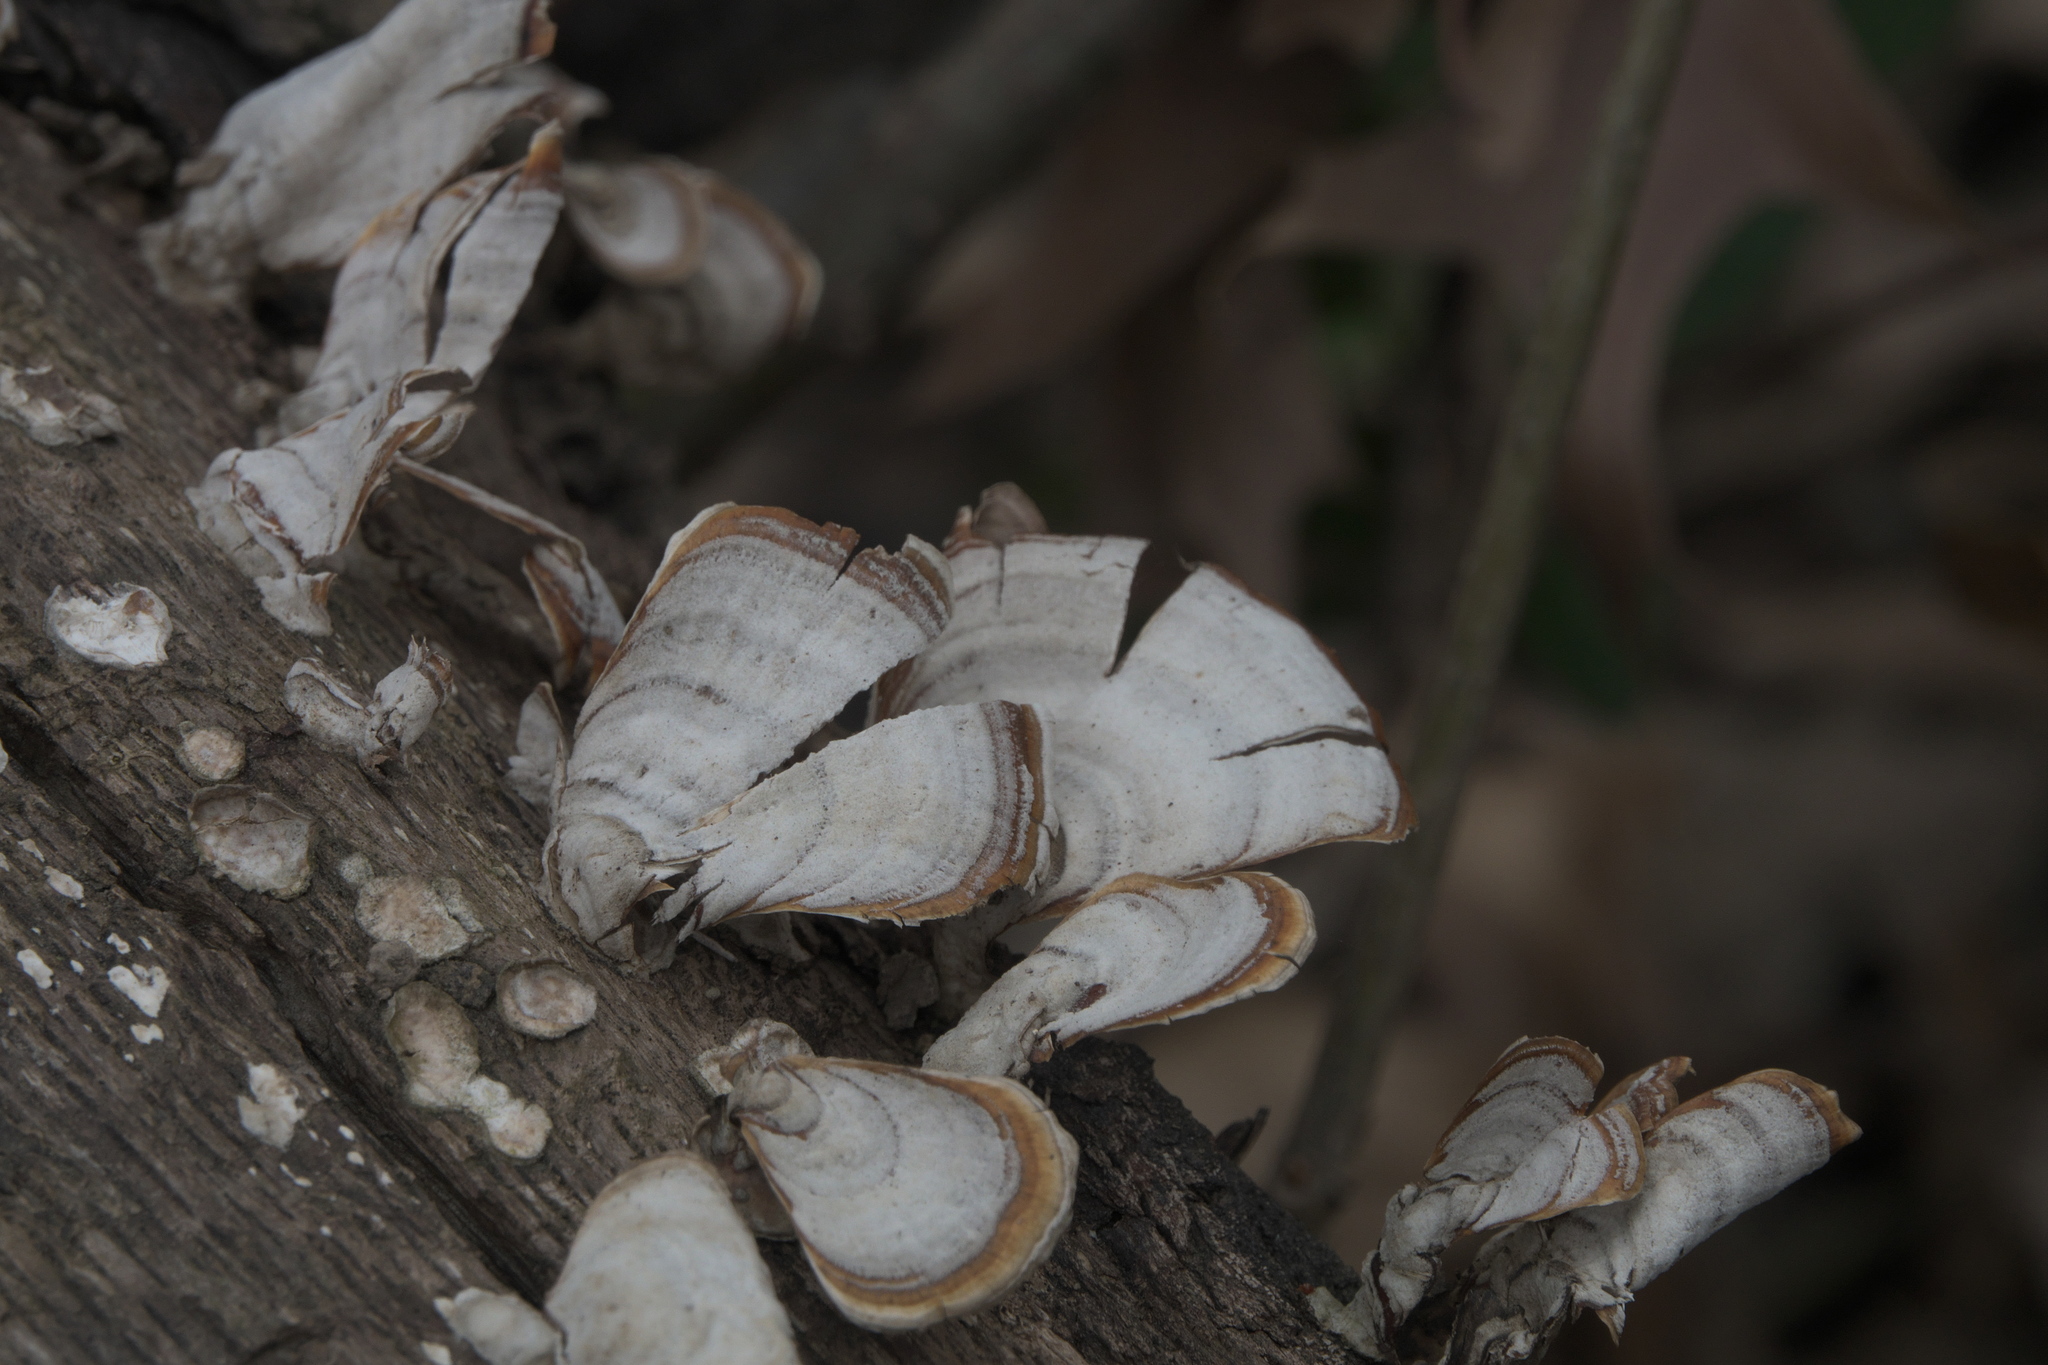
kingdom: Fungi
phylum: Basidiomycota
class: Agaricomycetes
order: Russulales
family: Stereaceae
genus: Stereum
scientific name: Stereum ostrea
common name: False turkeytail
